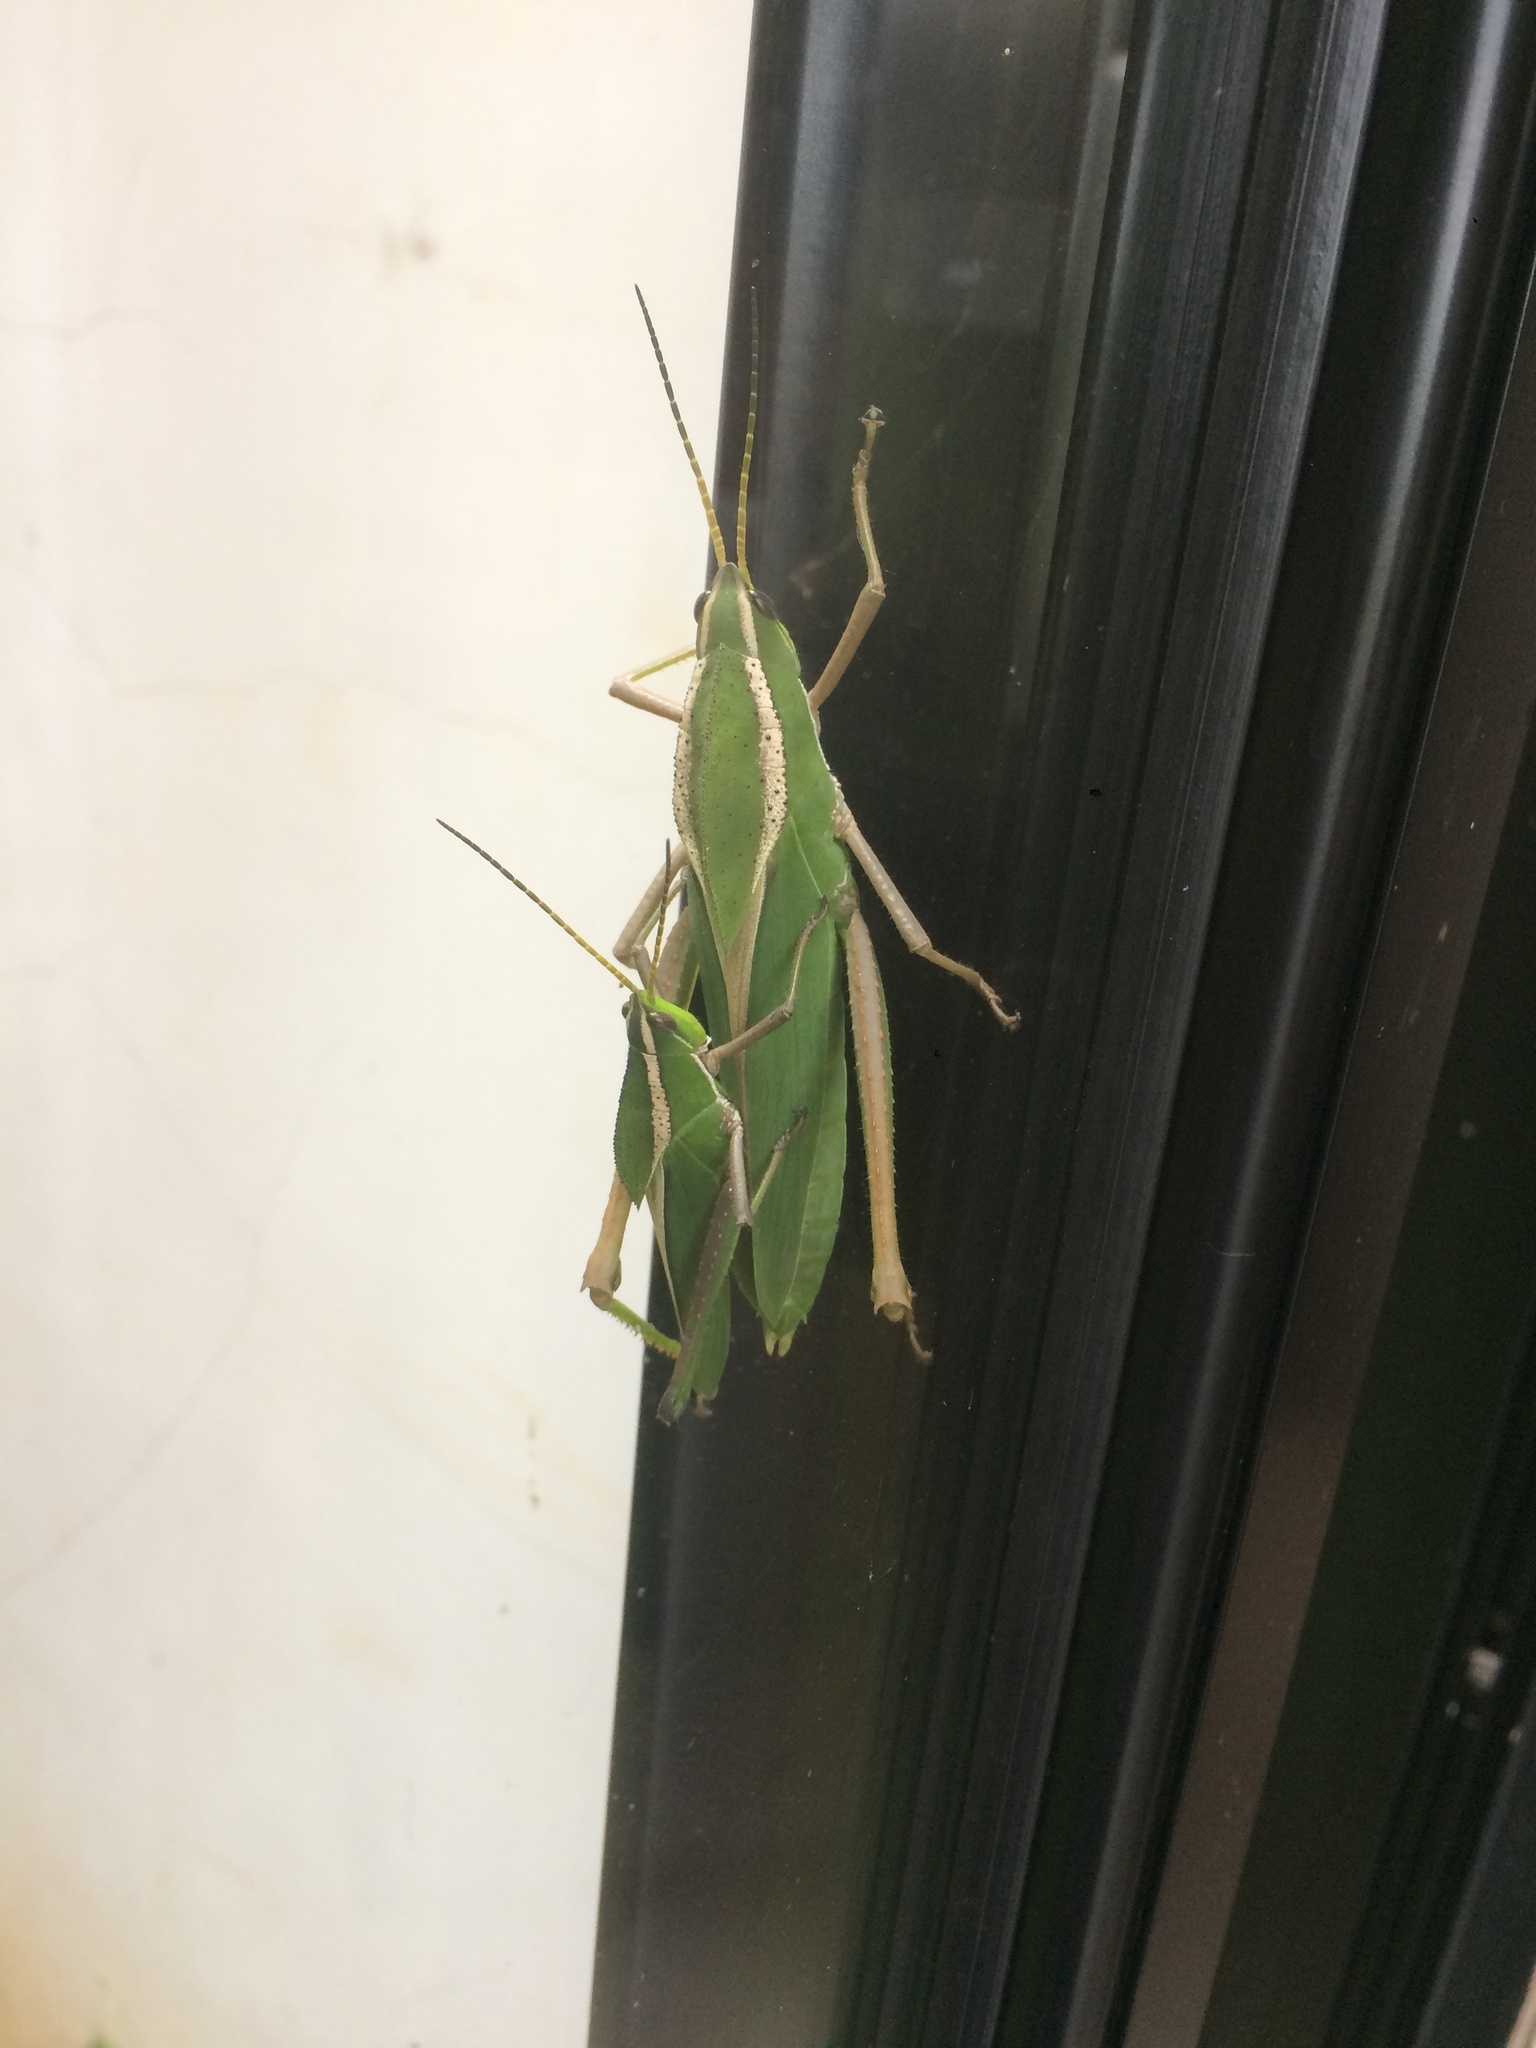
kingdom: Animalia
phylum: Arthropoda
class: Insecta
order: Orthoptera
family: Romaleidae
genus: Prionolopha
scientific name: Prionolopha serrata
